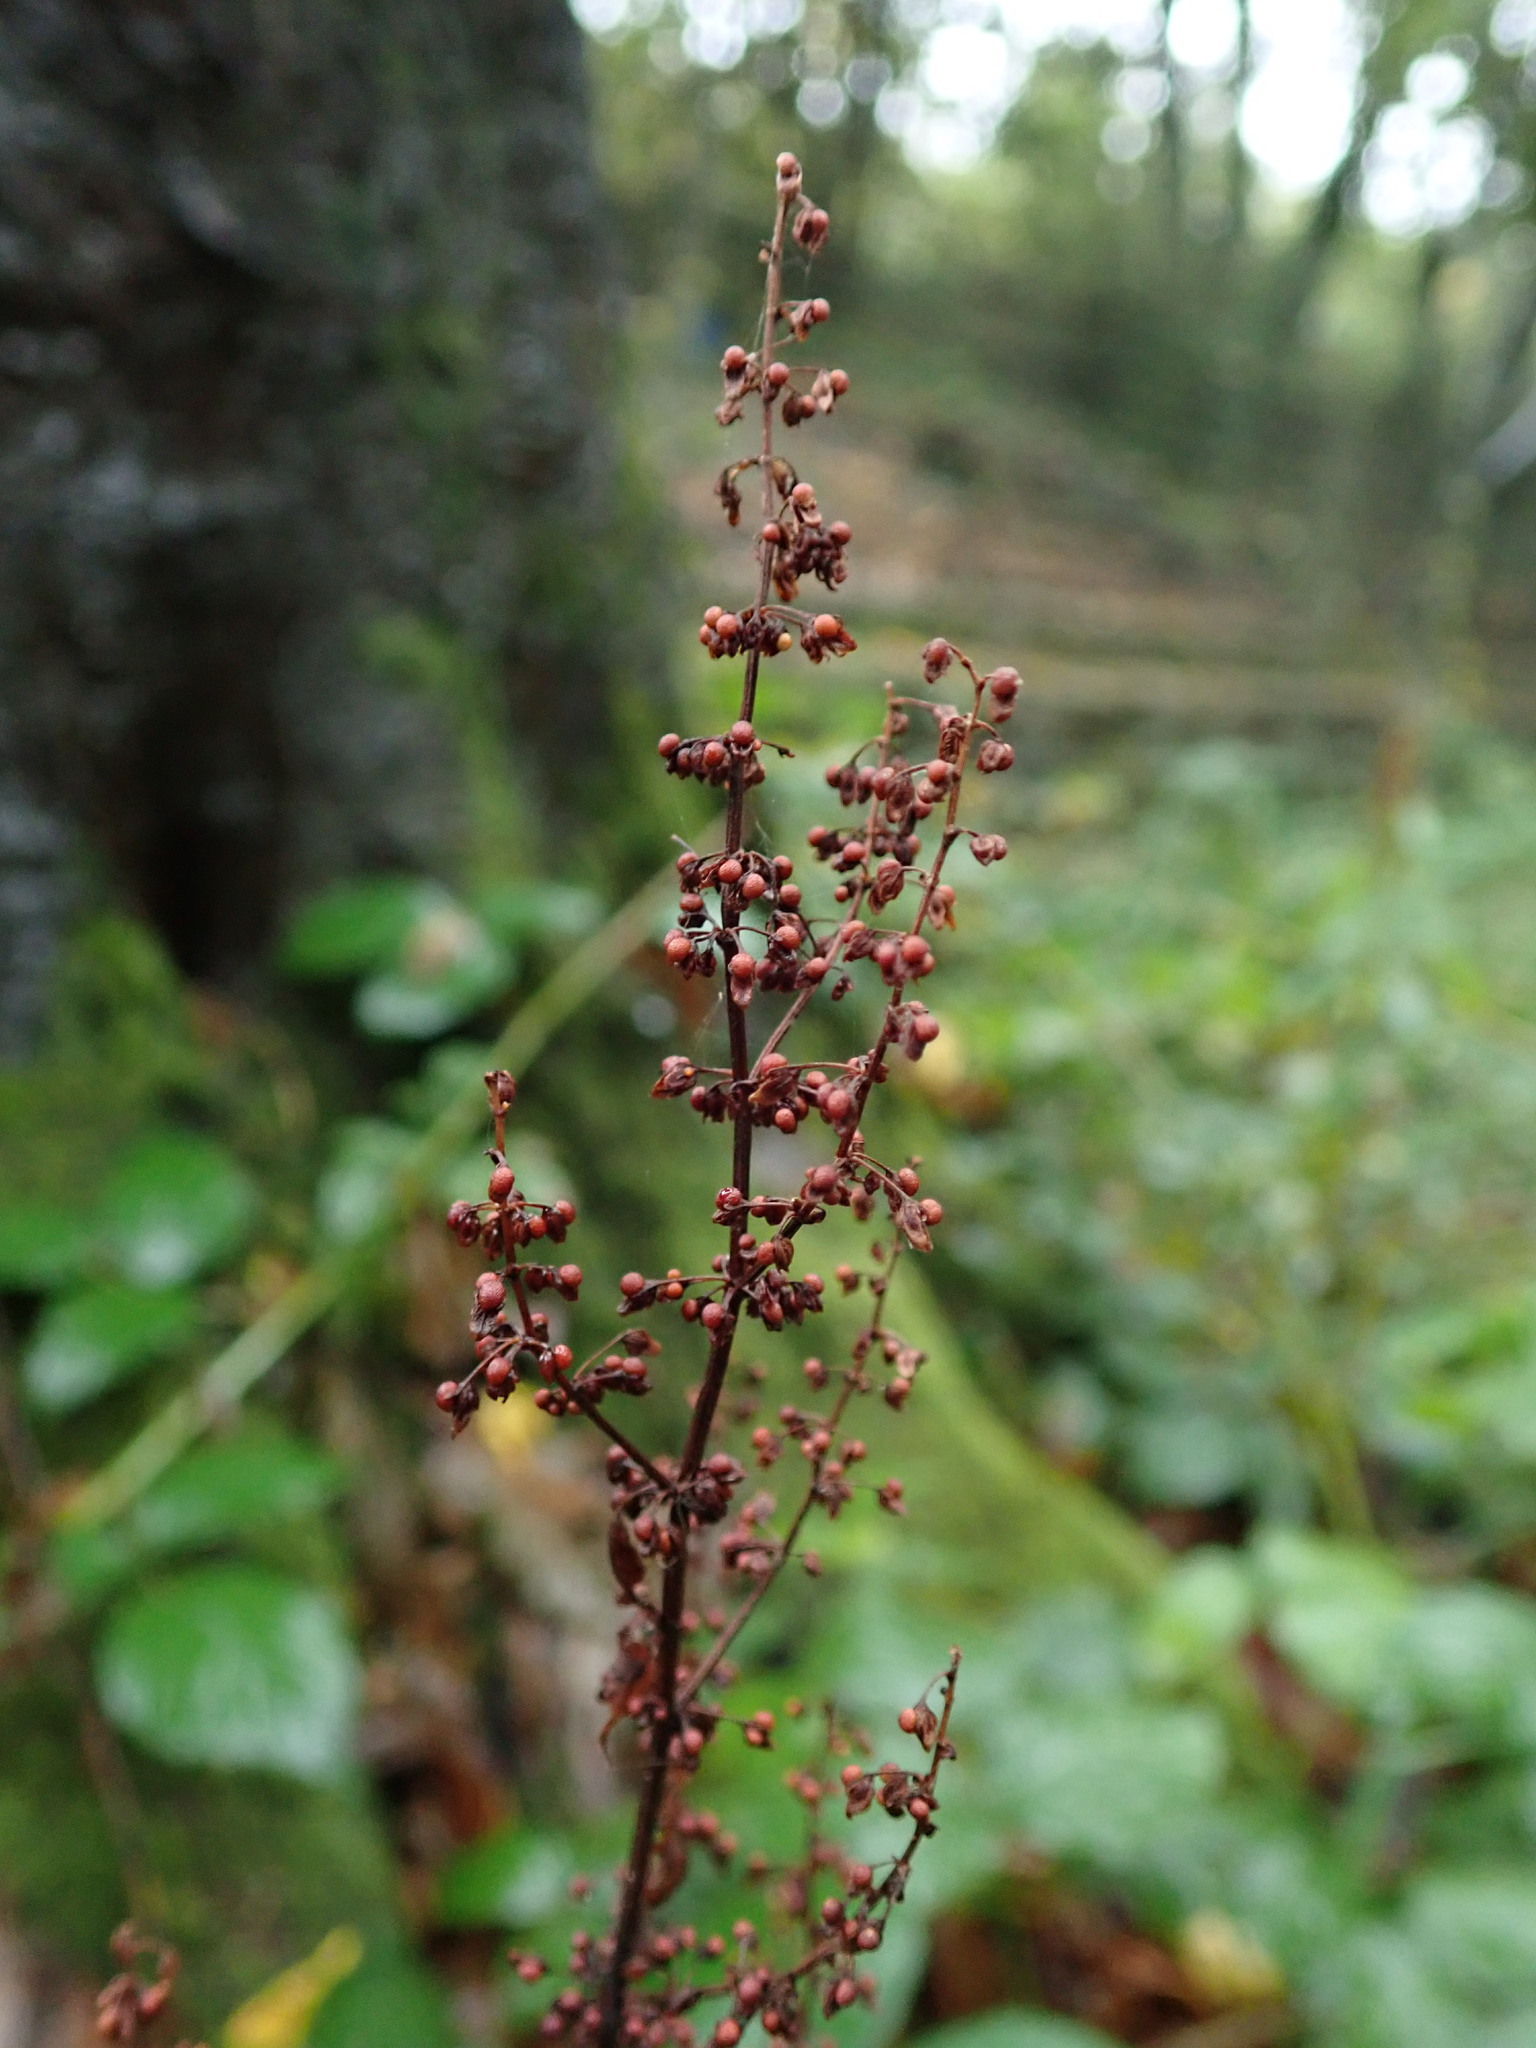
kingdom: Plantae
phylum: Tracheophyta
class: Magnoliopsida
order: Caryophyllales
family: Polygonaceae
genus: Rumex
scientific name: Rumex sanguineus
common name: Wood dock
